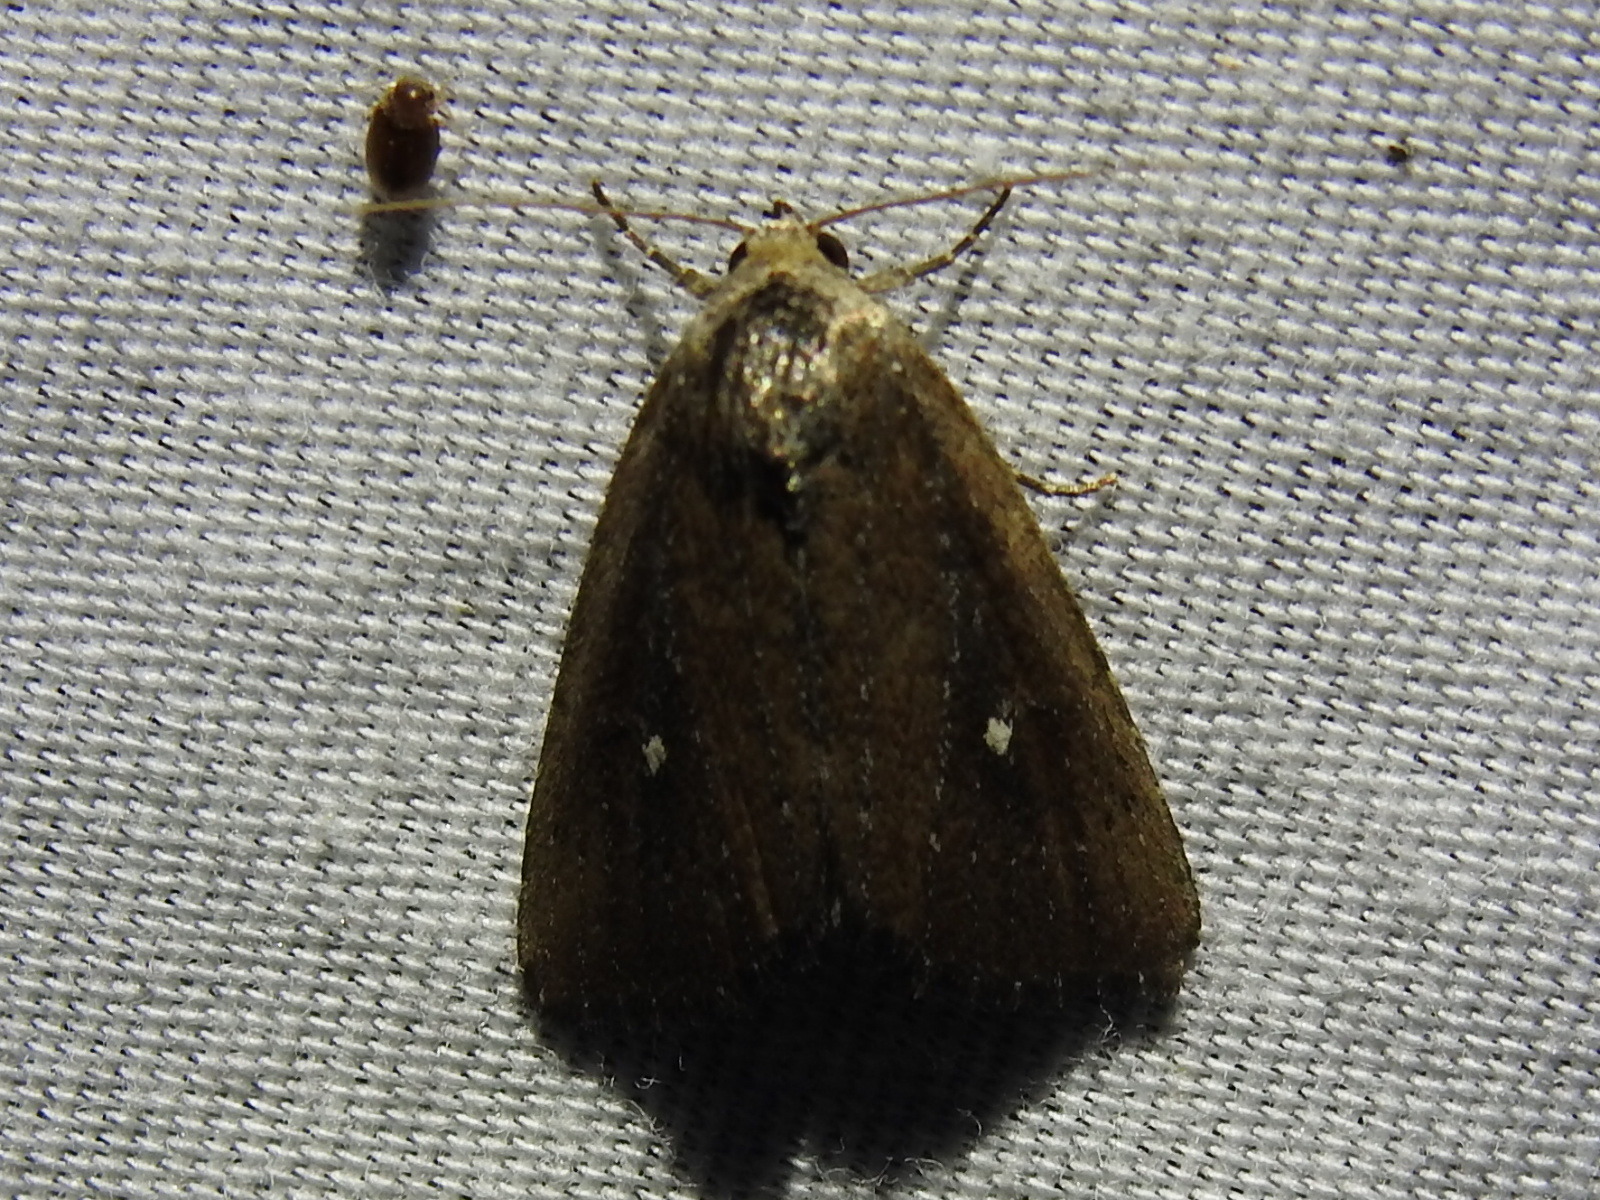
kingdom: Animalia
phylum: Arthropoda
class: Insecta
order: Lepidoptera
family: Noctuidae
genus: Condica
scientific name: Condica videns
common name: White-dotted groundling
